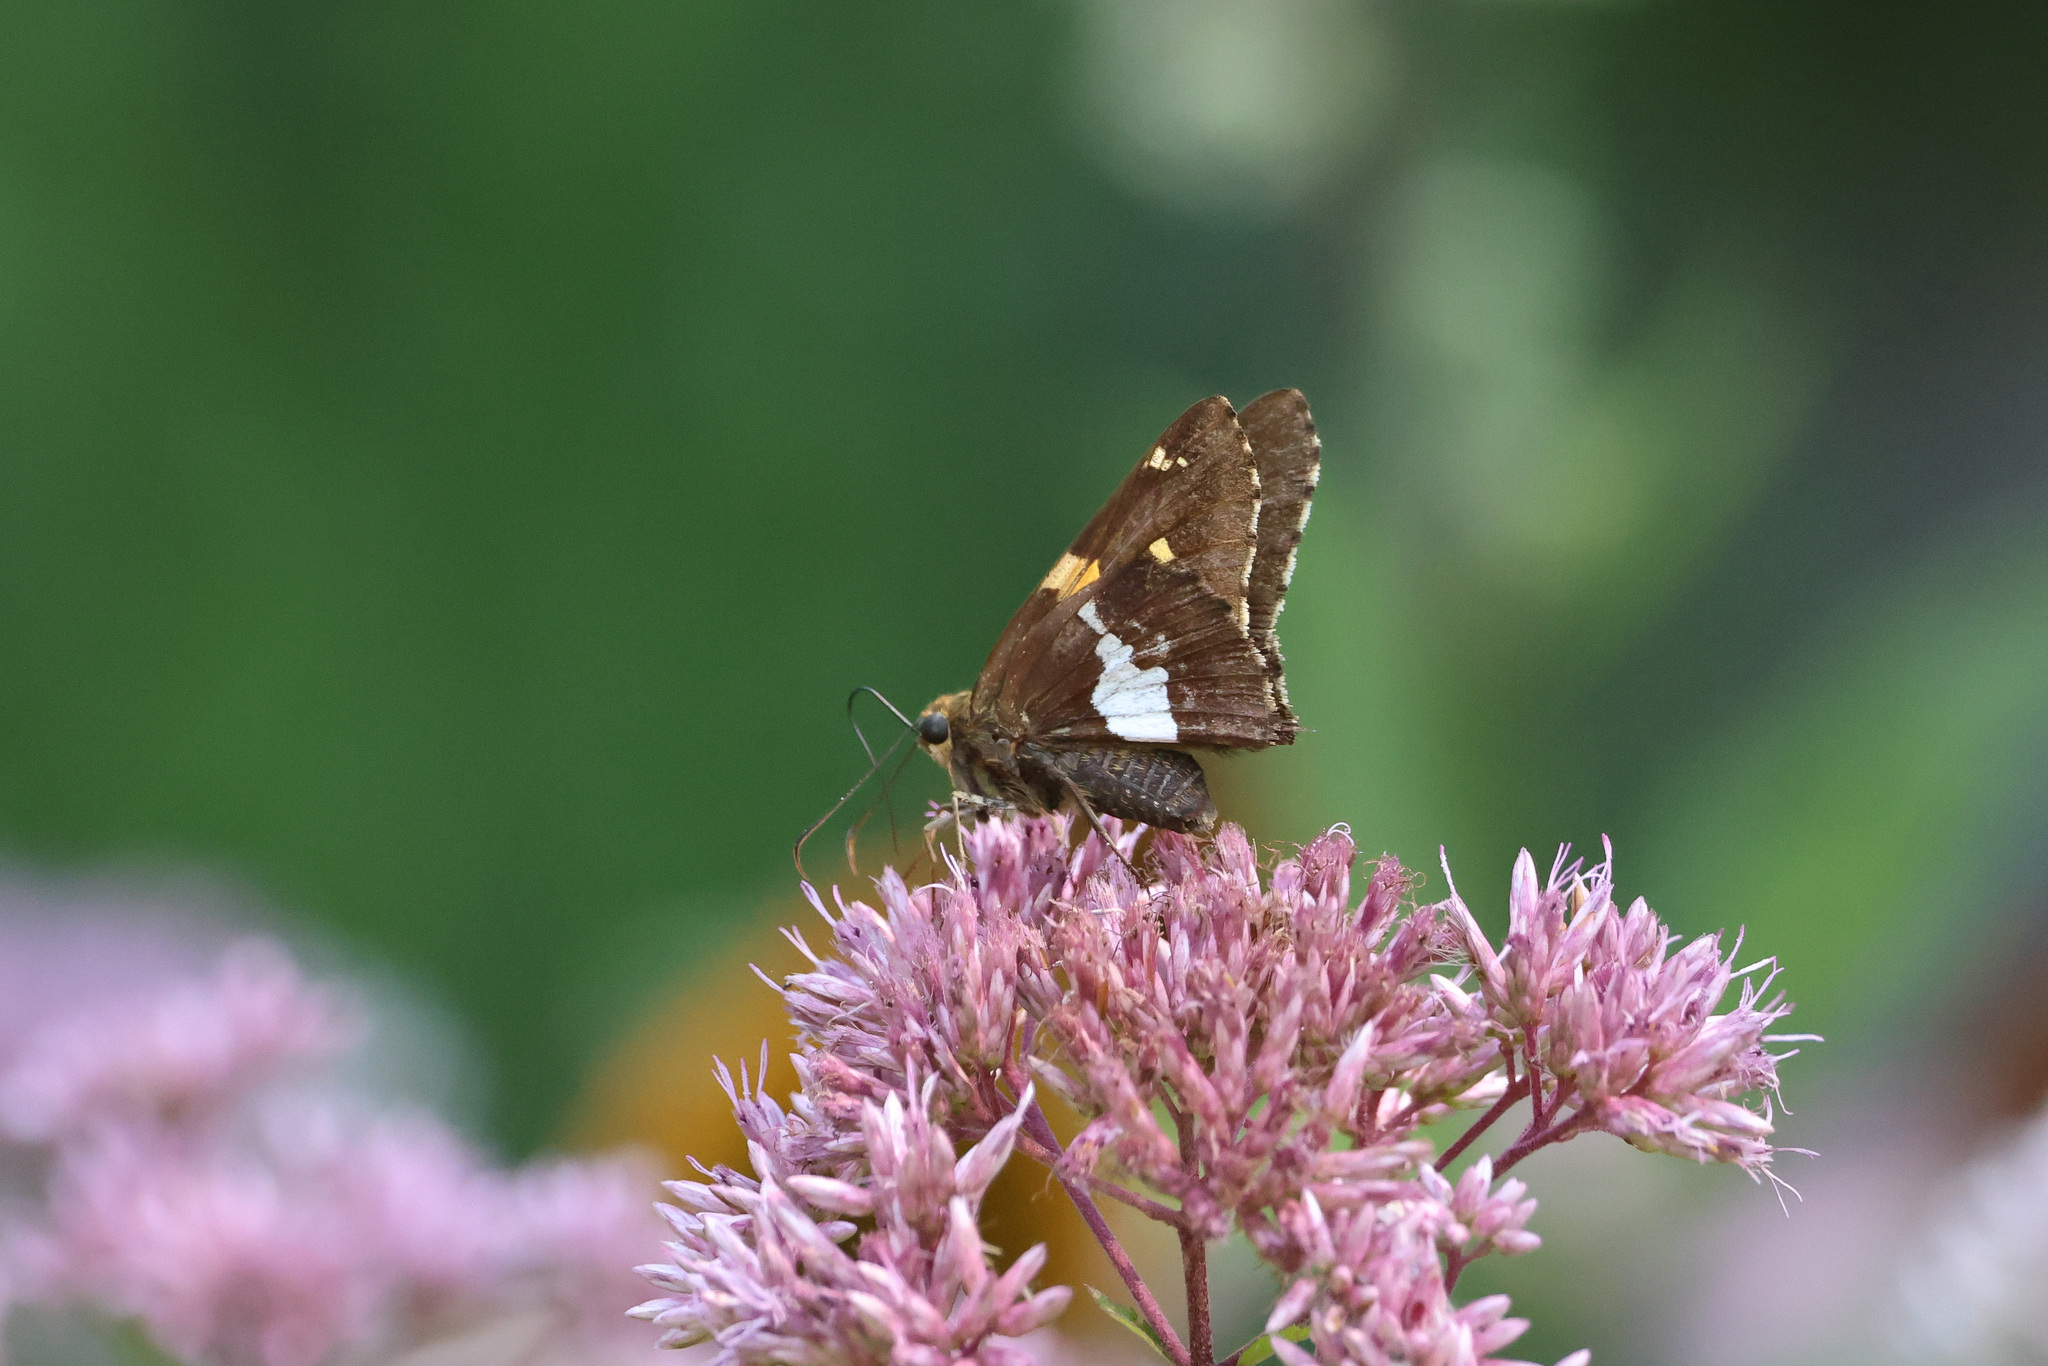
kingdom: Animalia
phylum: Arthropoda
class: Insecta
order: Lepidoptera
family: Hesperiidae
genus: Epargyreus
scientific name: Epargyreus clarus
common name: Silver-spotted skipper
